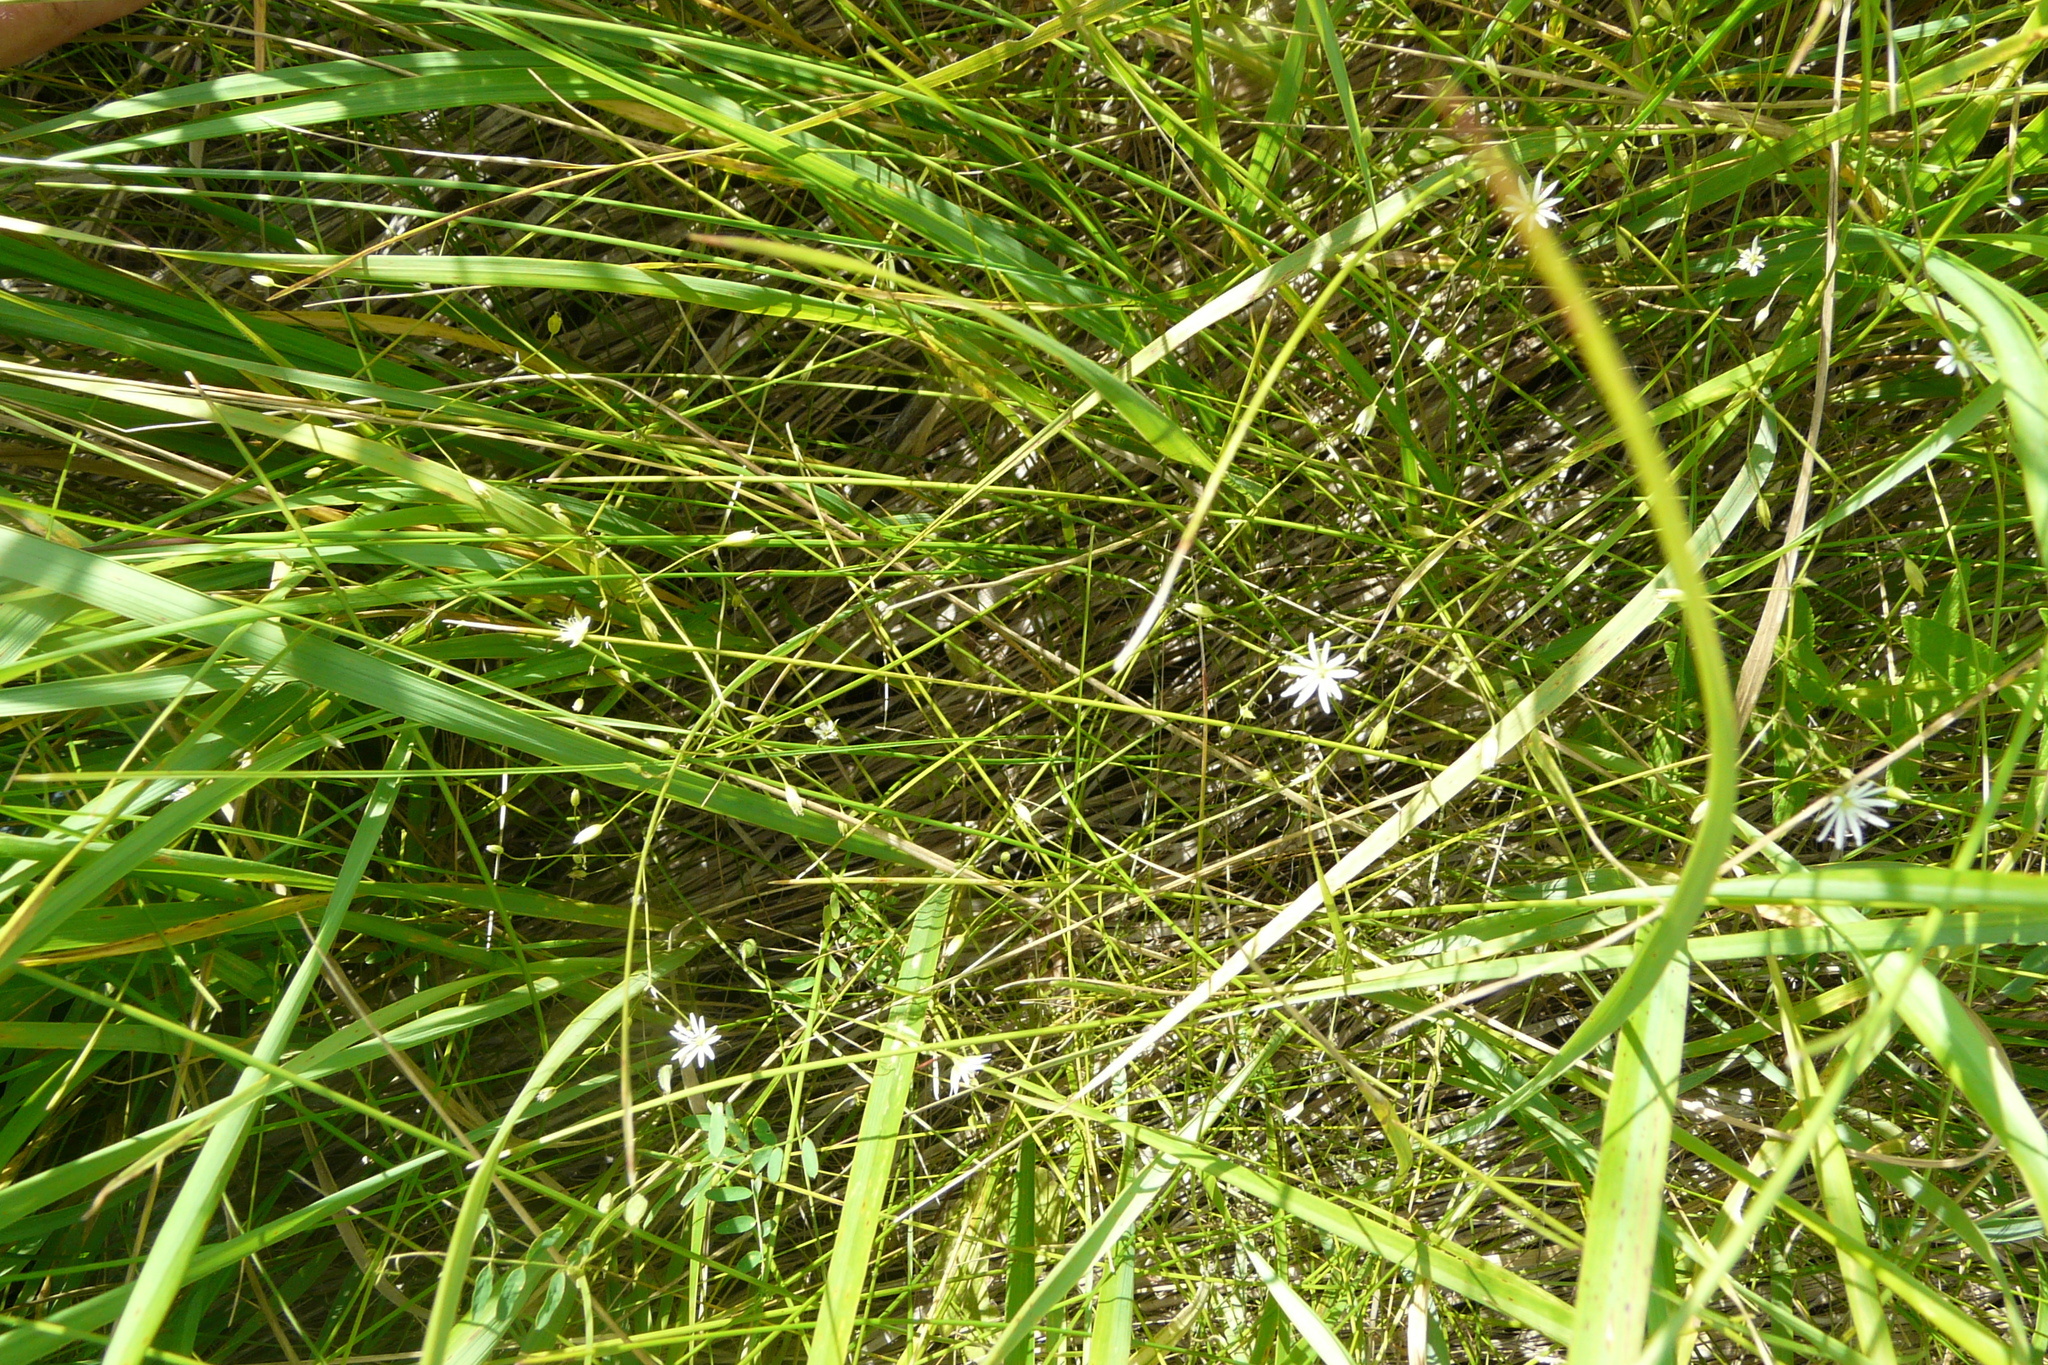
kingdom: Plantae
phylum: Tracheophyta
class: Magnoliopsida
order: Caryophyllales
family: Caryophyllaceae
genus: Stellaria
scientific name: Stellaria graminea
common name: Grass-like starwort
